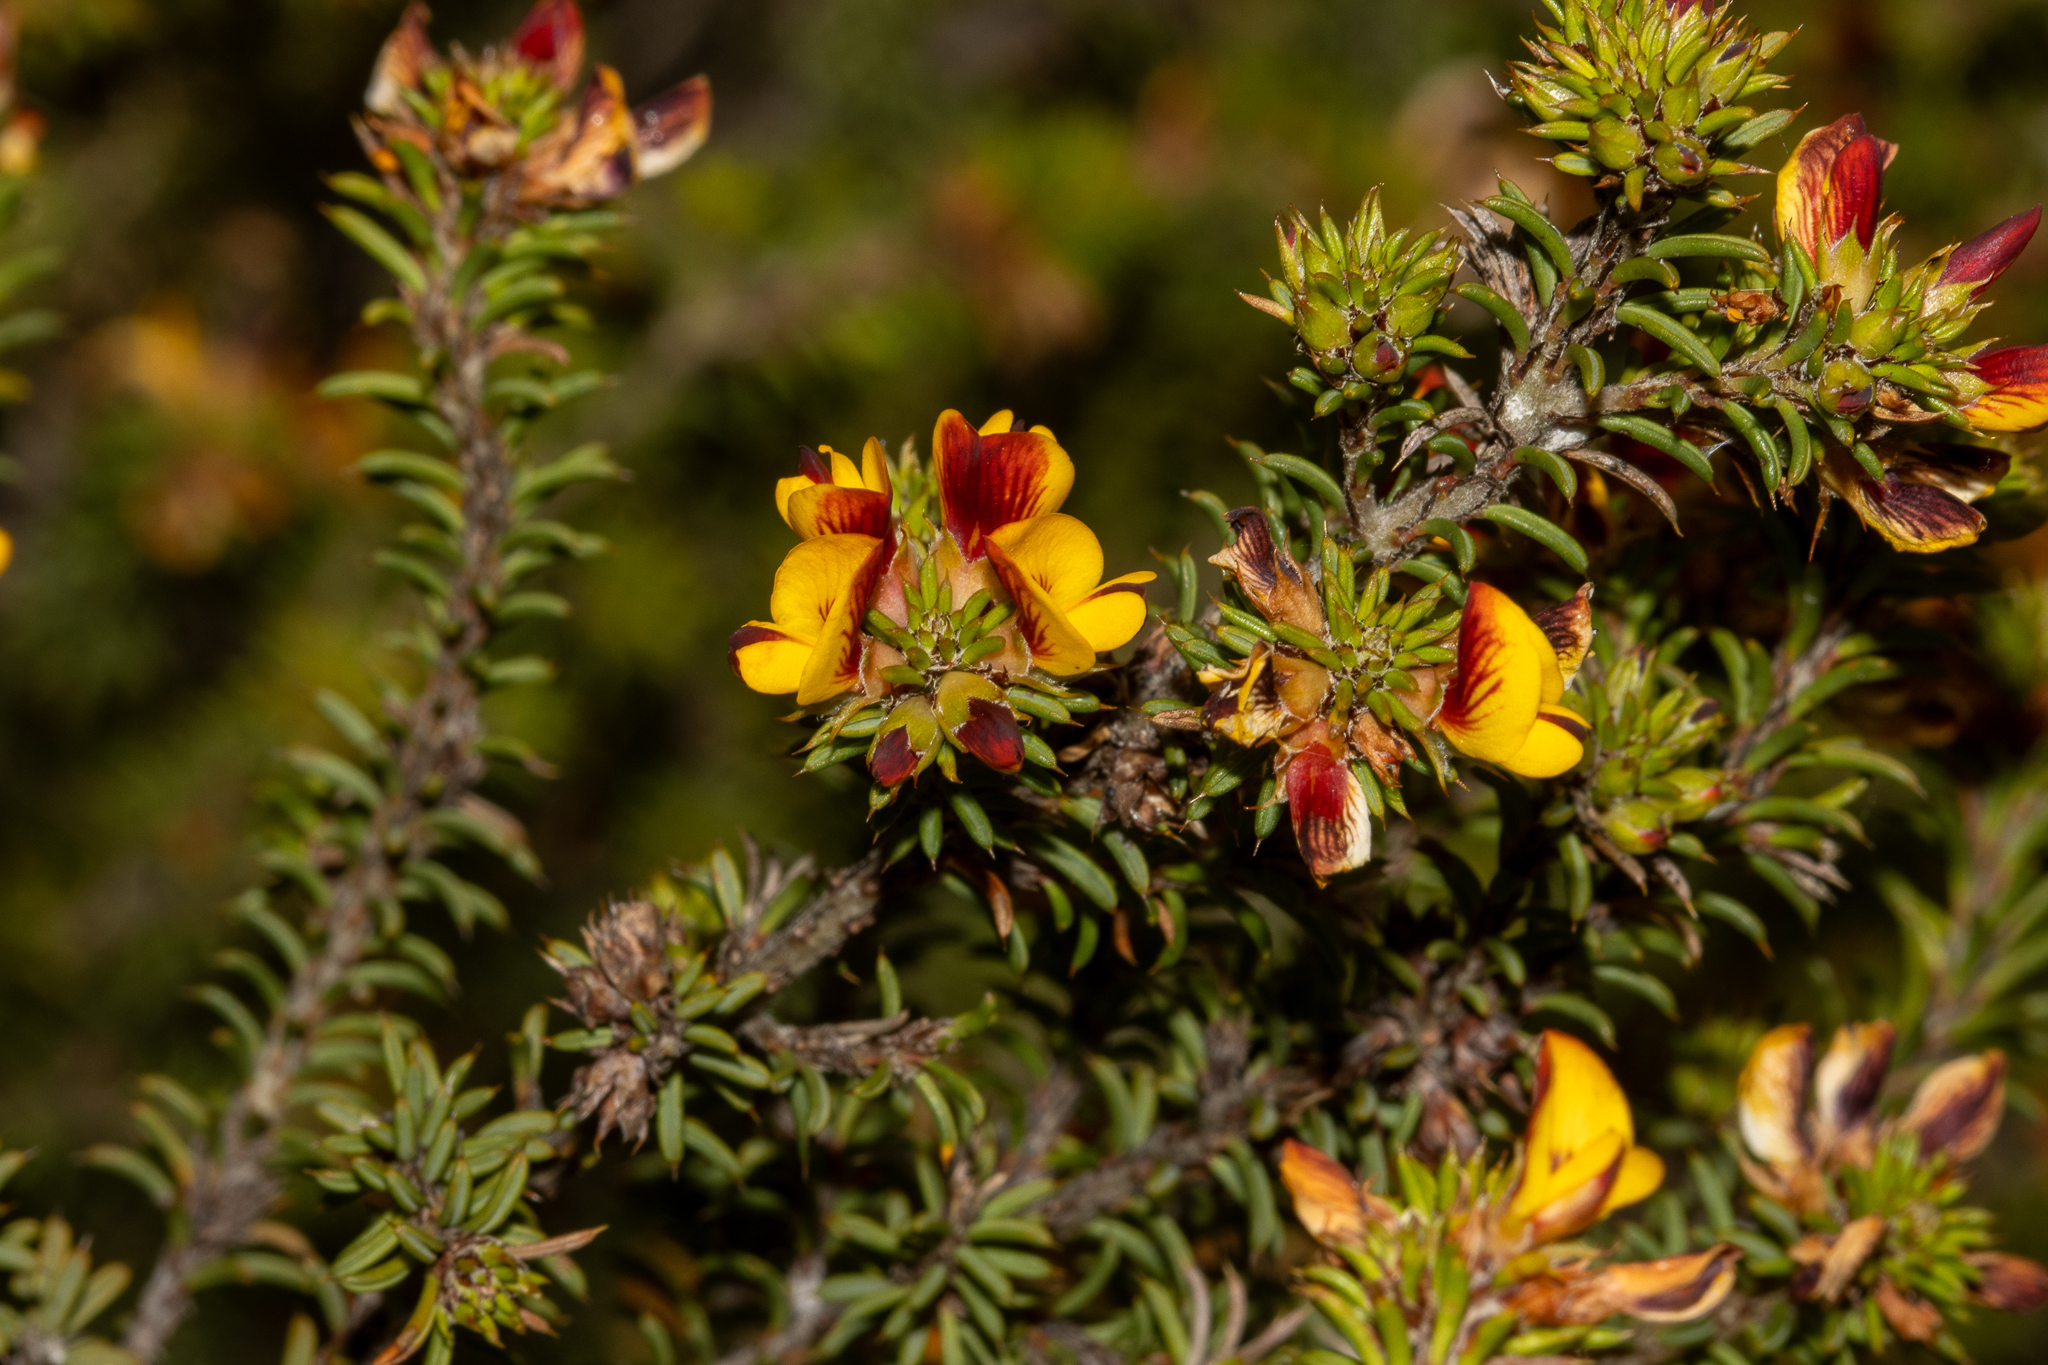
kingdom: Plantae
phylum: Tracheophyta
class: Magnoliopsida
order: Fabales
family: Fabaceae
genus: Pultenaea
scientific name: Pultenaea acerosa
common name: Bristly bush-pea
